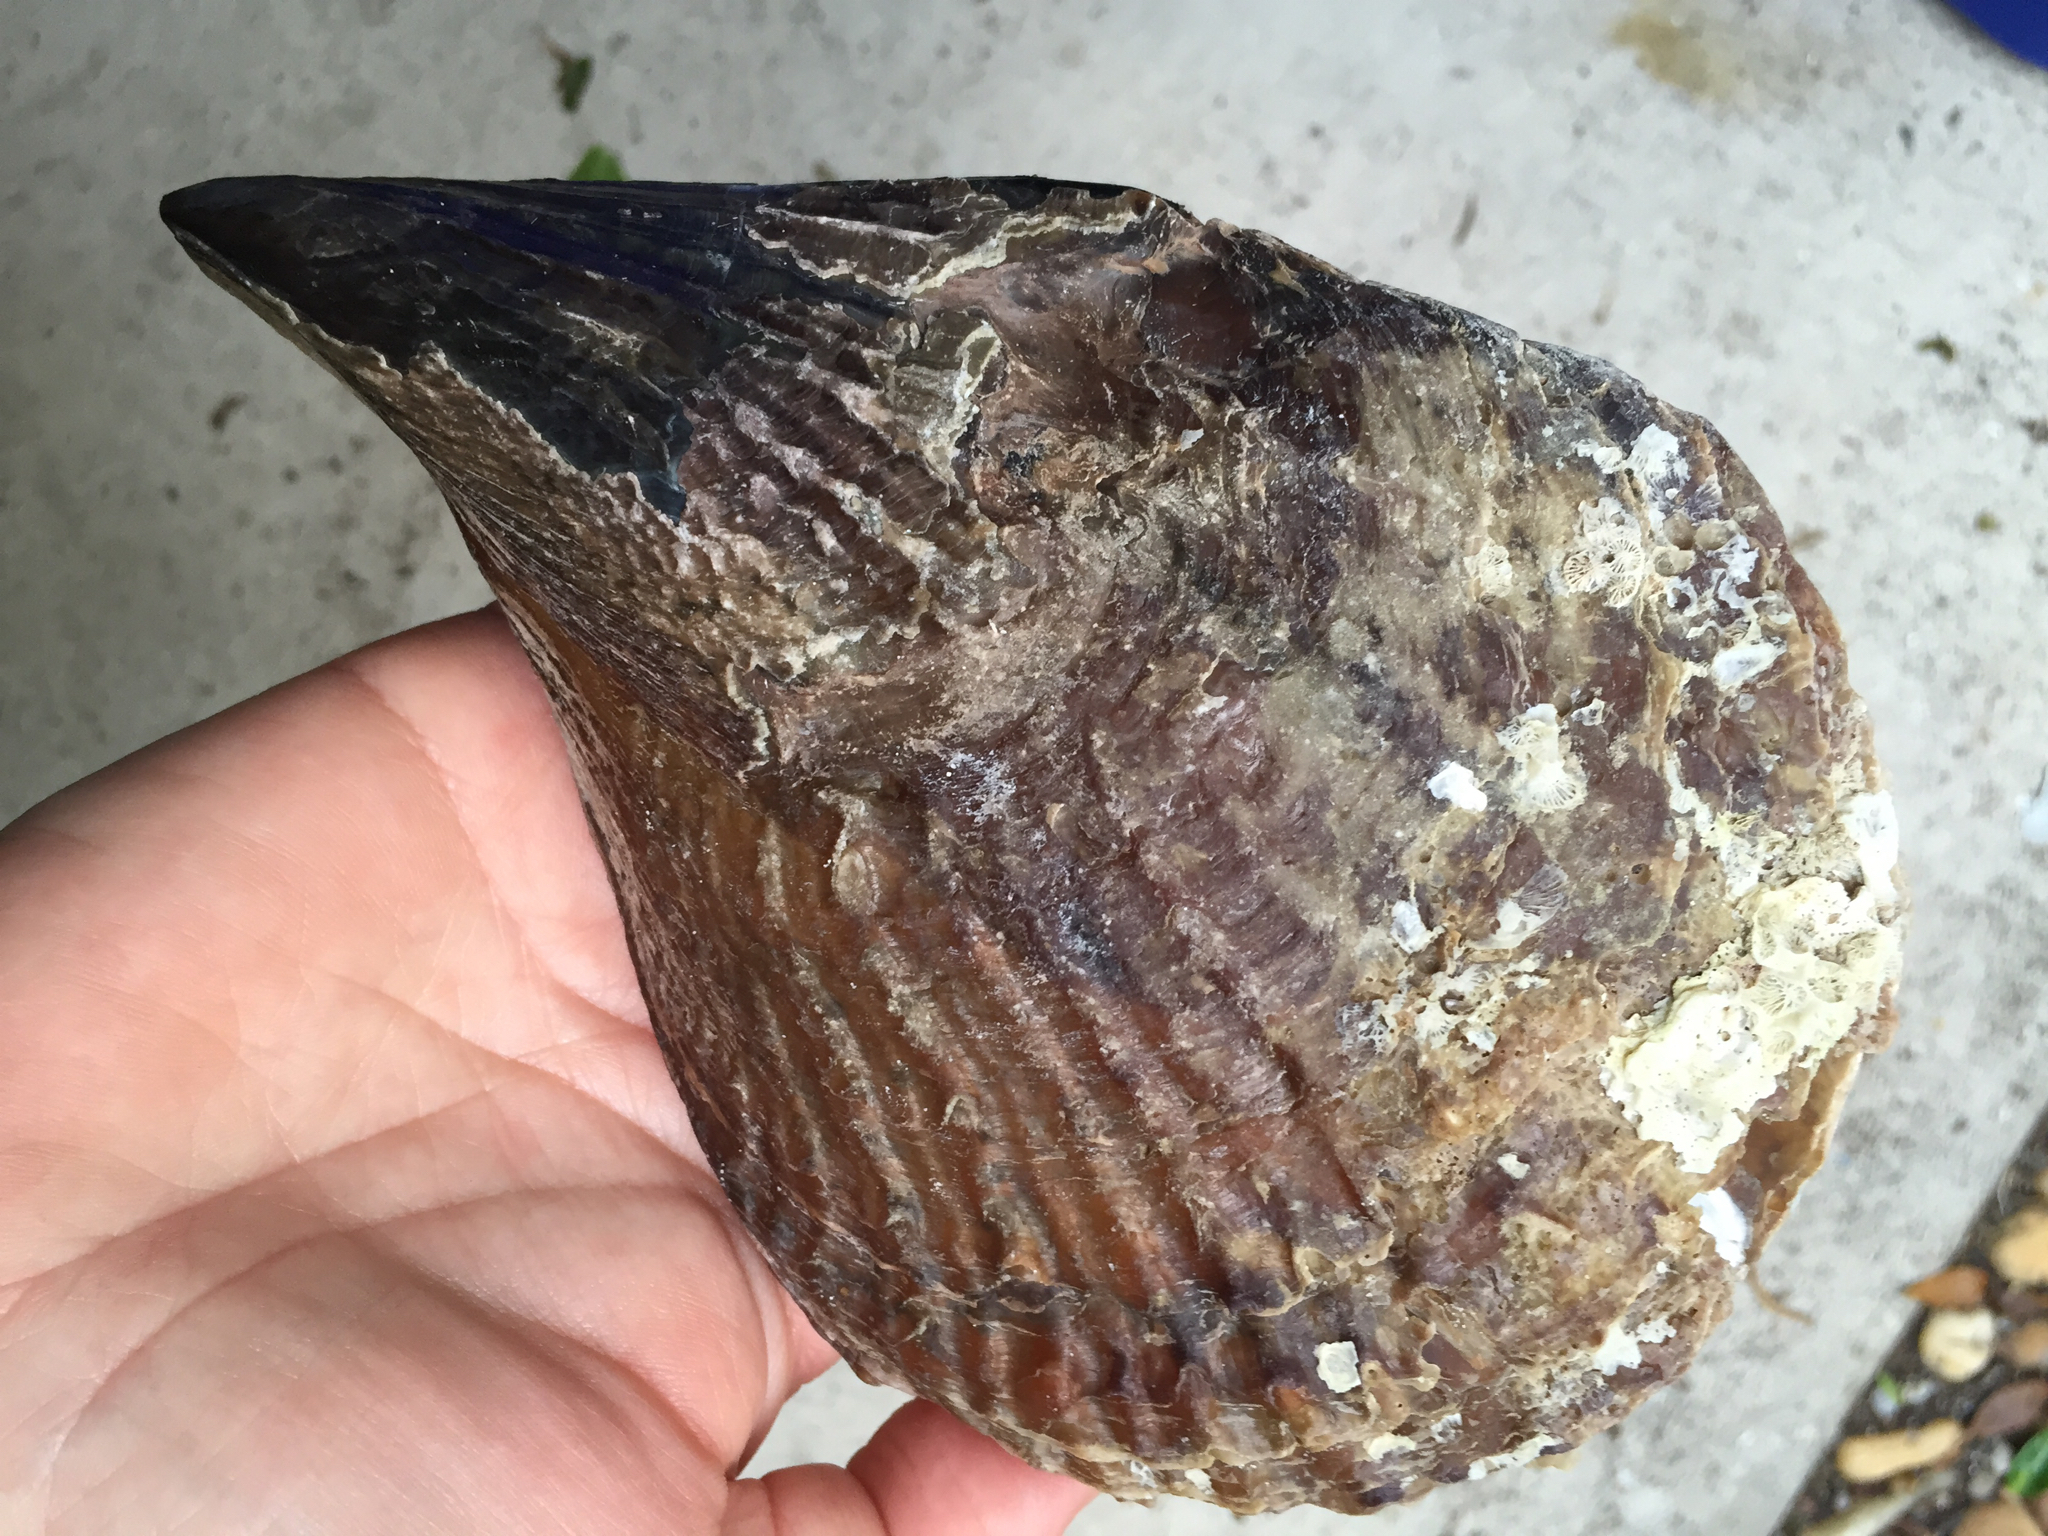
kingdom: Animalia
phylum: Mollusca
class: Bivalvia
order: Ostreida
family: Pinnidae
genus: Atrina
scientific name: Atrina rigida
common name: Stiff penshell
